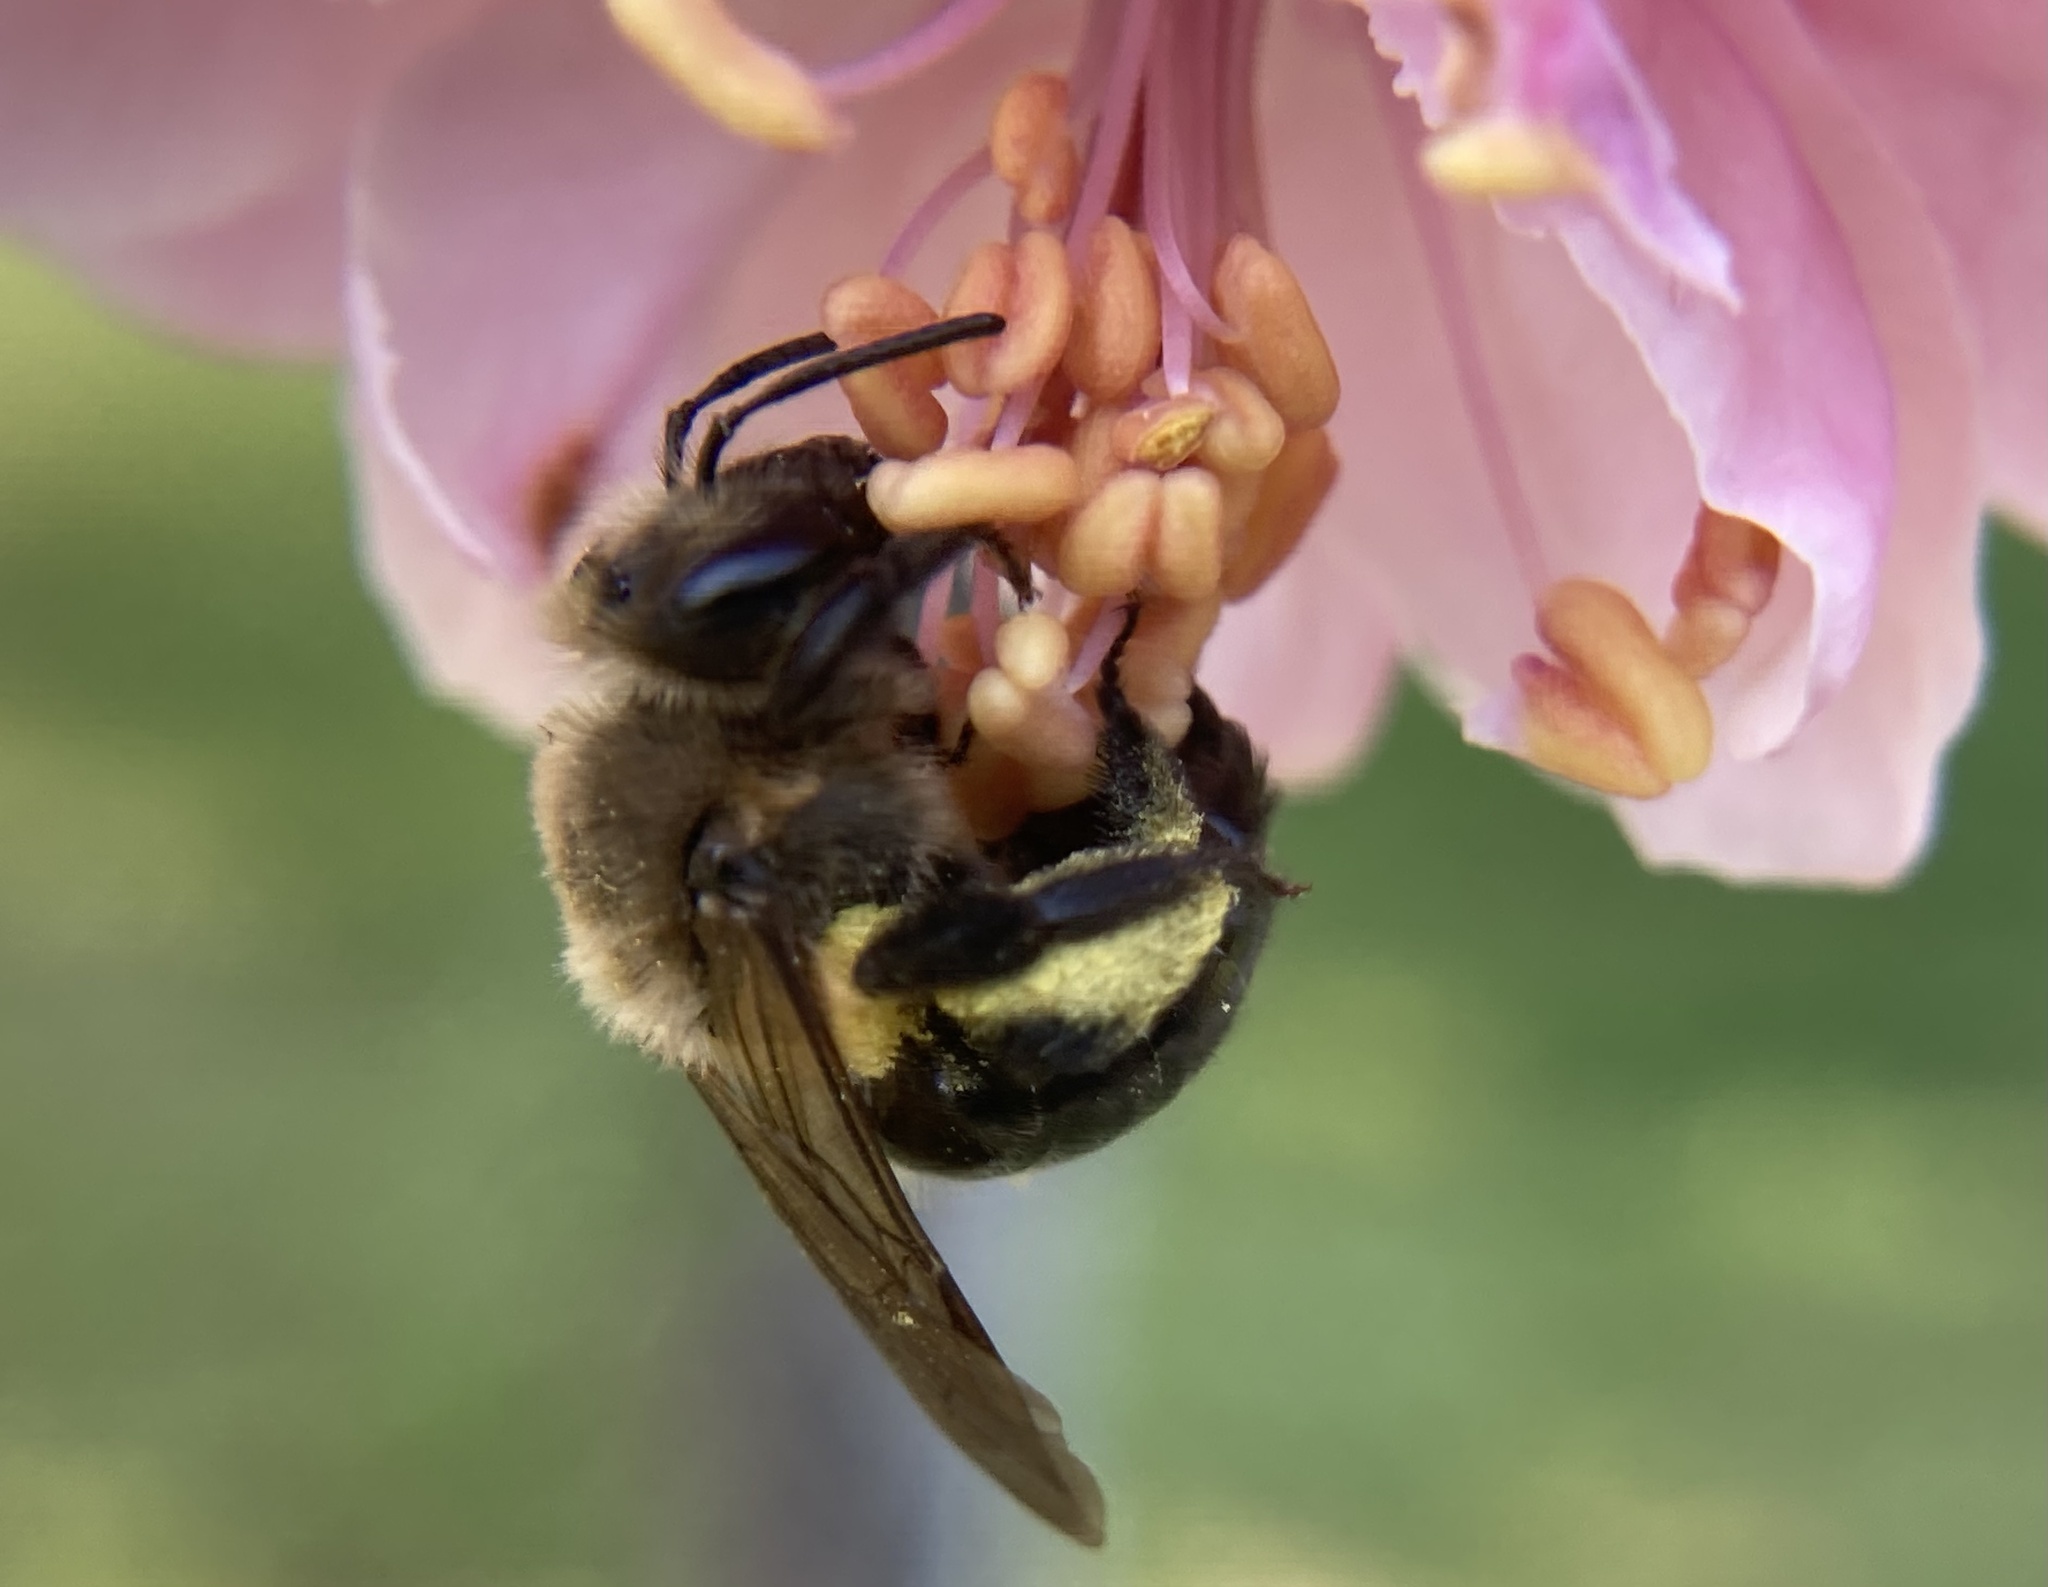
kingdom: Animalia
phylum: Arthropoda
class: Insecta
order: Hymenoptera
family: Andrenidae
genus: Andrena
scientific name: Andrena vicina
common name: Neighborly mining bee
